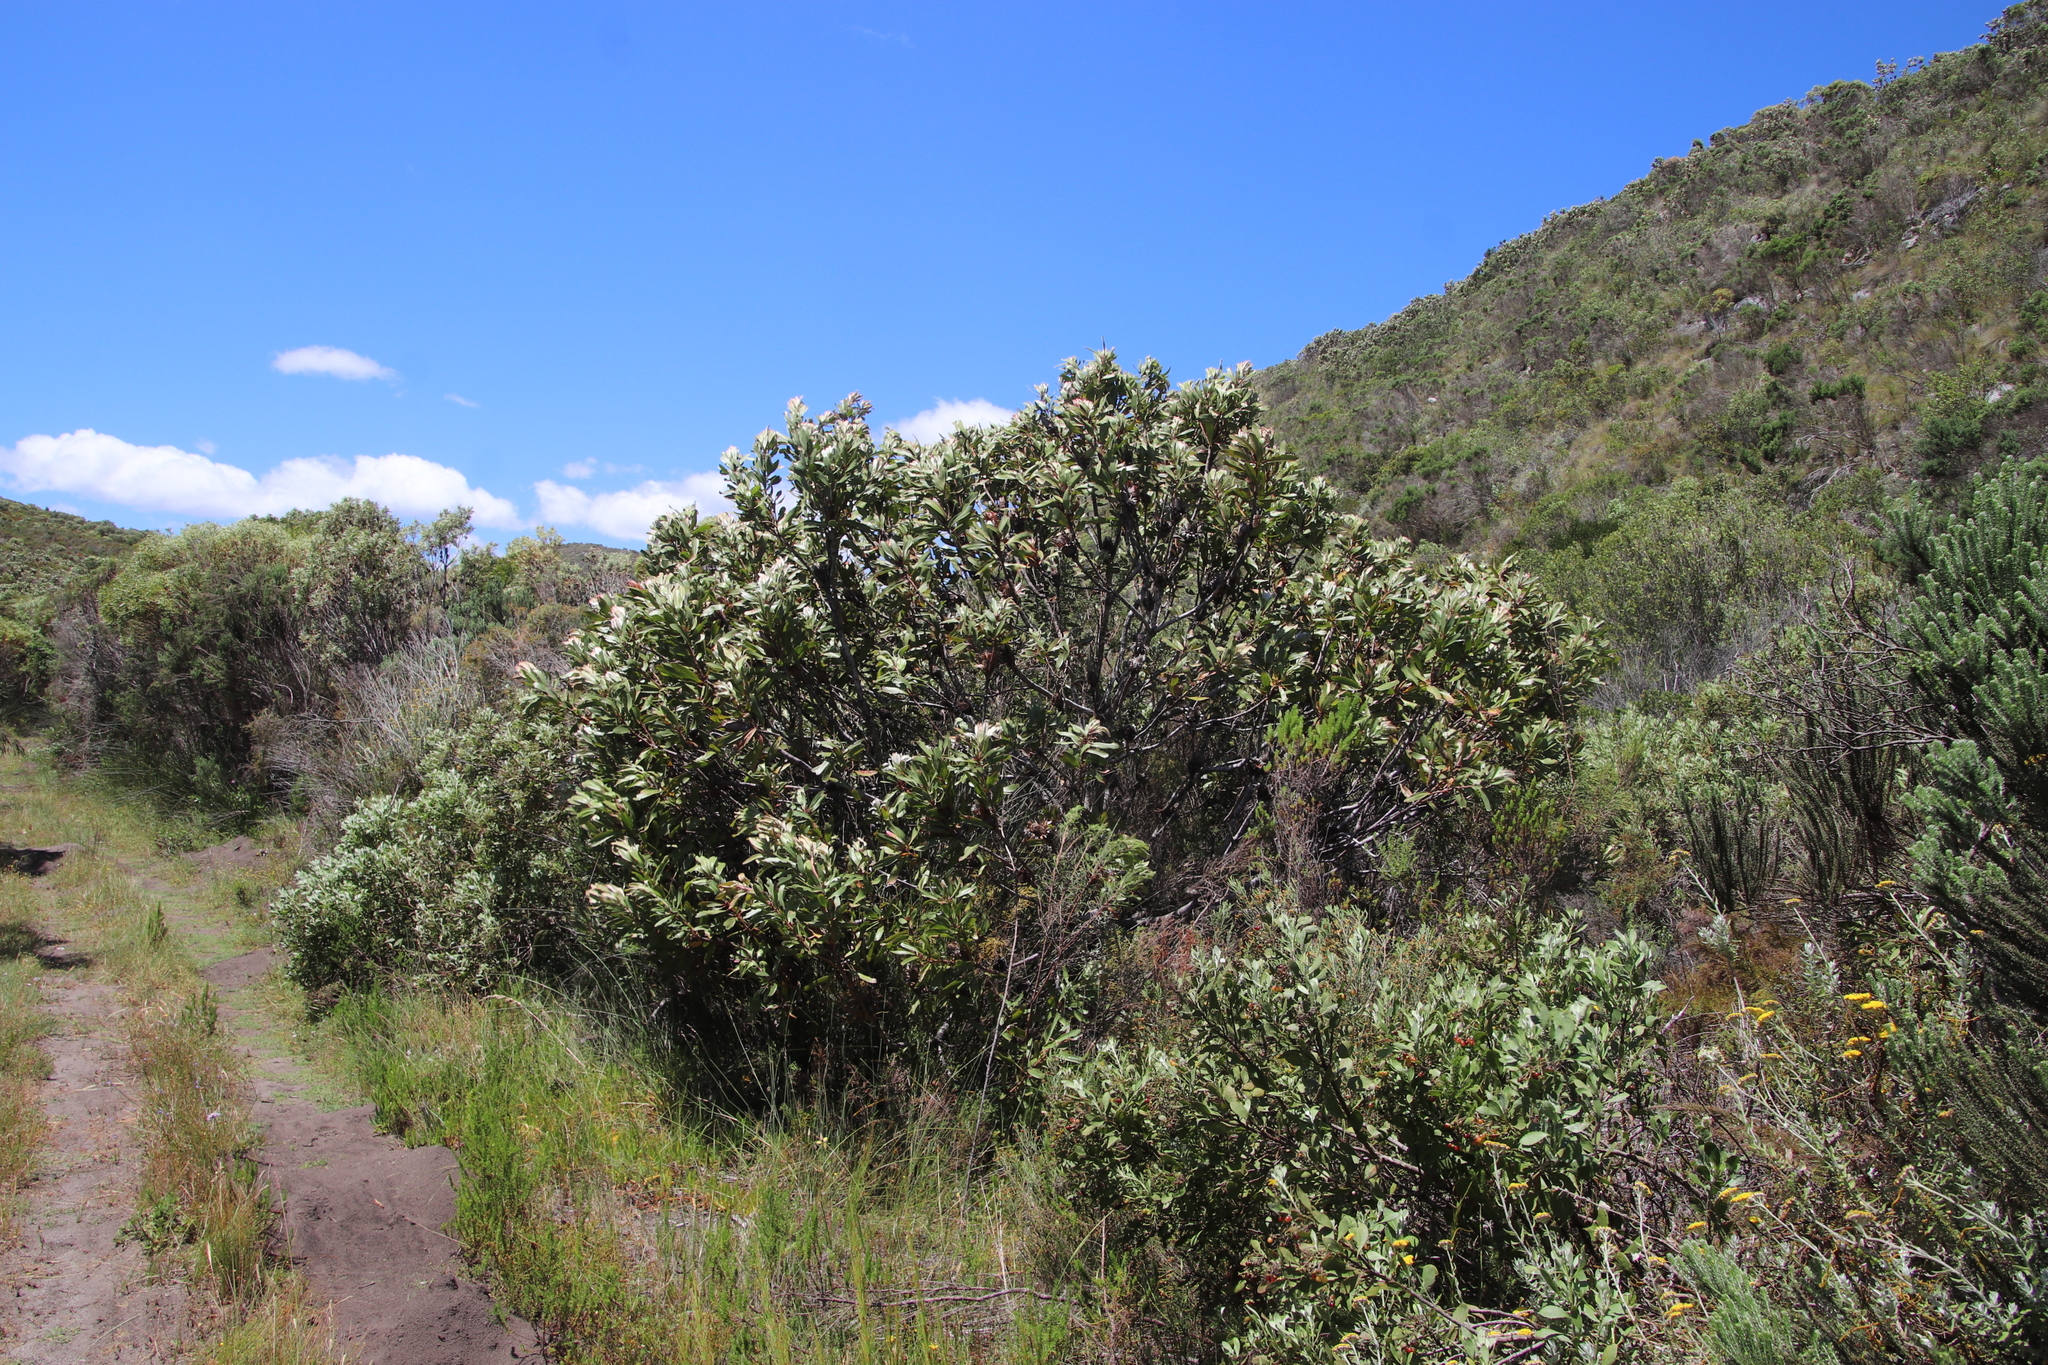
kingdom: Plantae
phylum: Tracheophyta
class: Magnoliopsida
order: Proteales
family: Proteaceae
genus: Protea
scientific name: Protea obtusifolia
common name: Bredasdorp sugarbush
